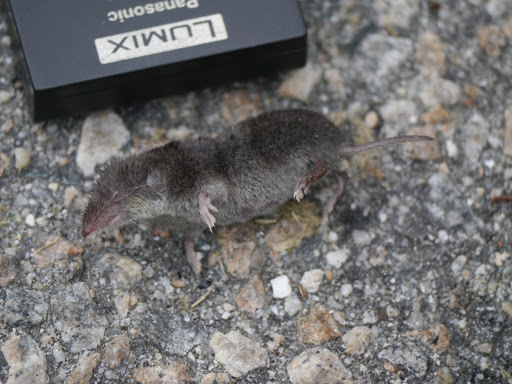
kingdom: Animalia
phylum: Chordata
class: Mammalia
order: Soricomorpha
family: Soricidae
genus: Cryptotis
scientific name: Cryptotis parva
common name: North american least shrew
